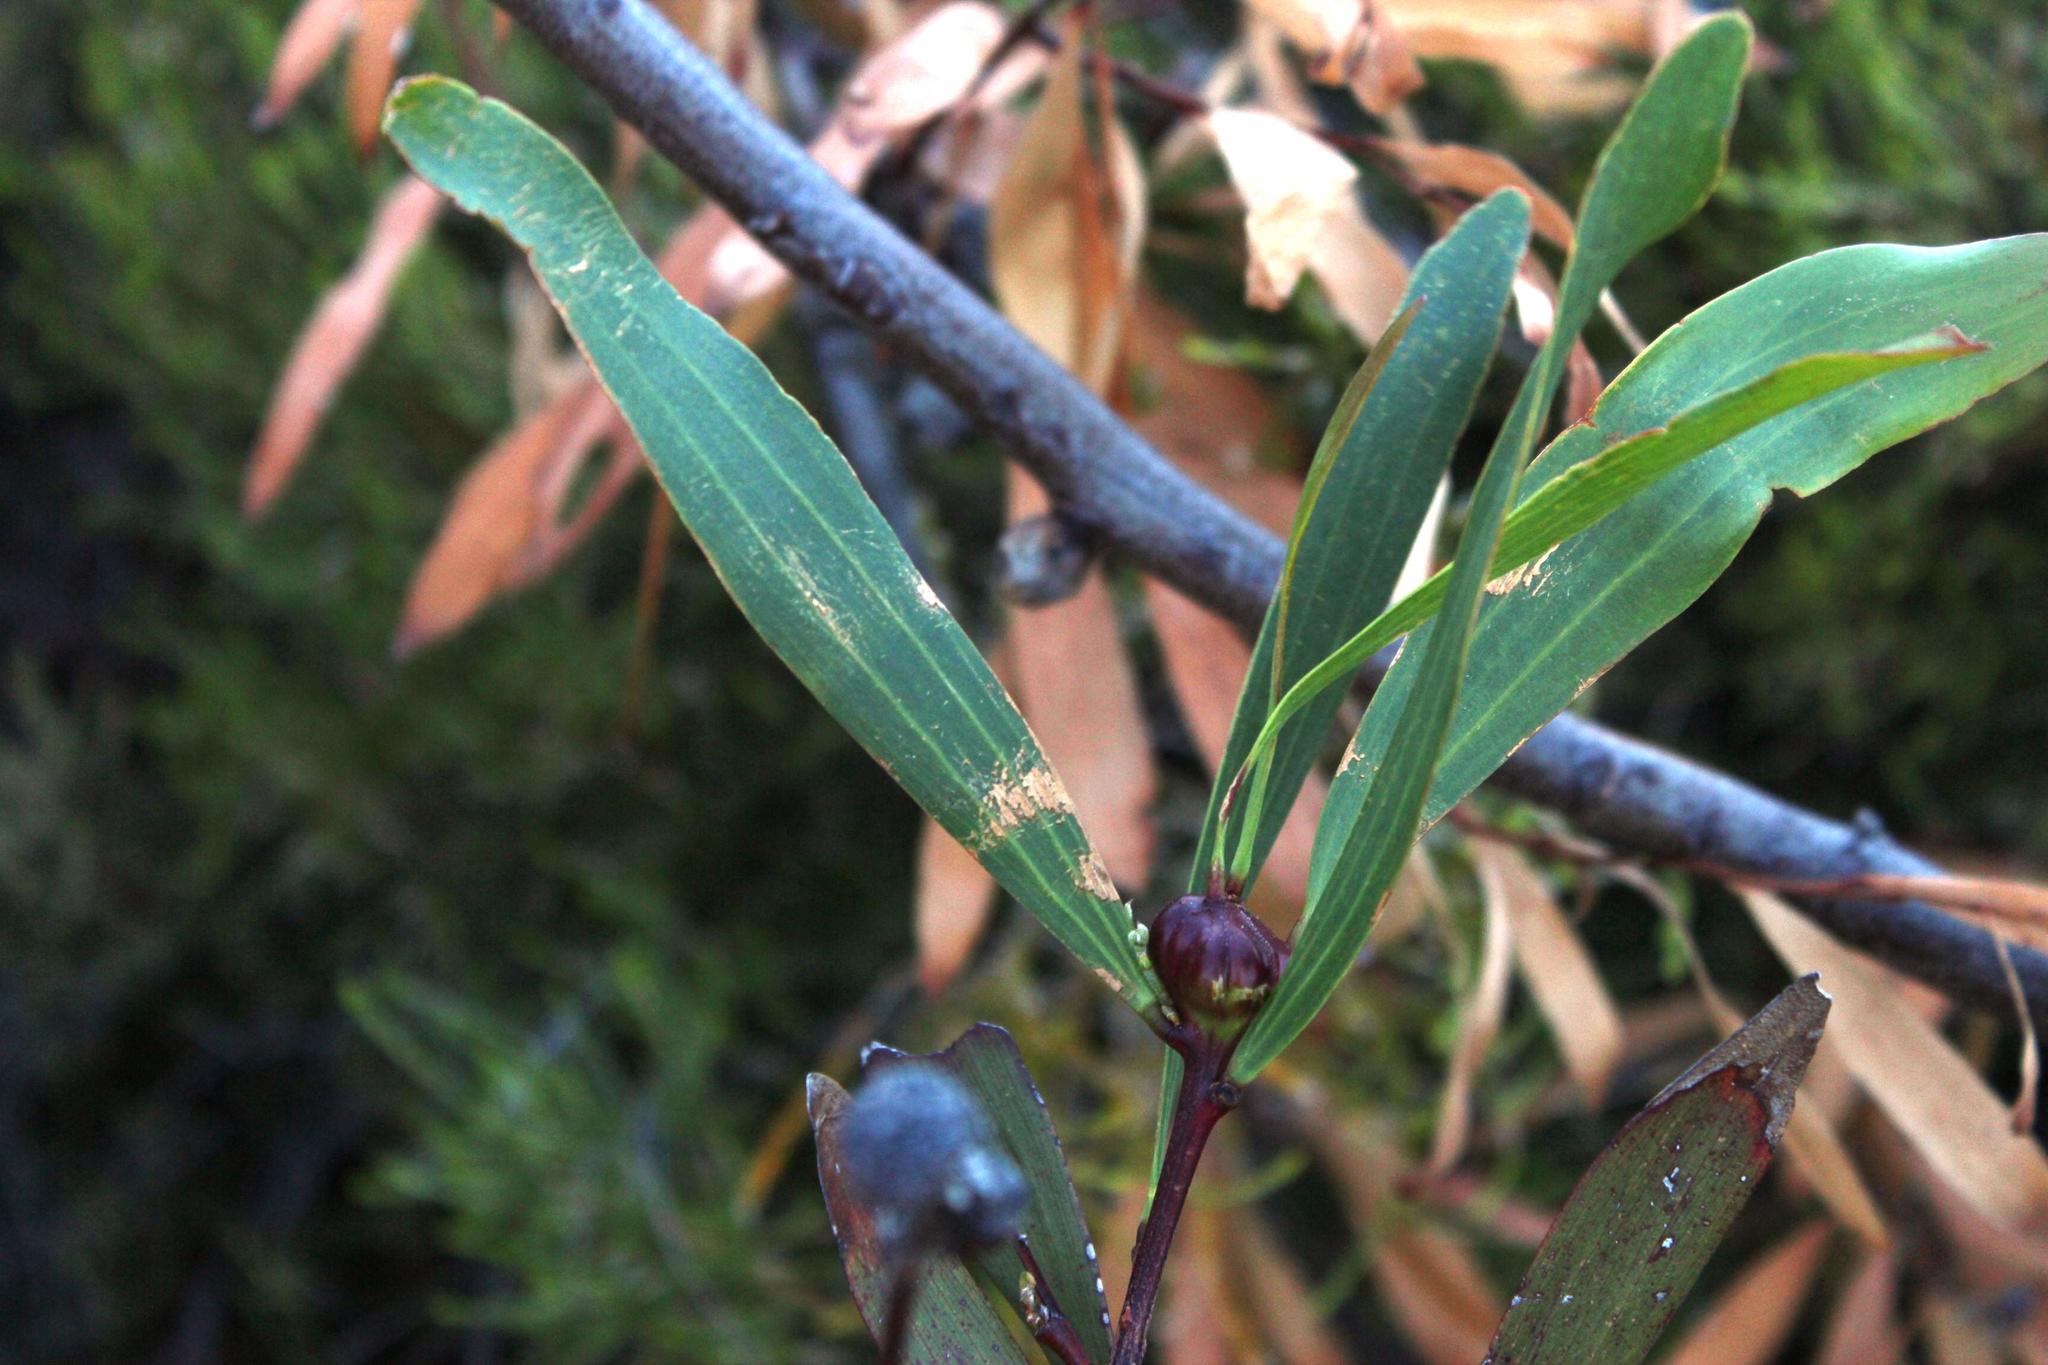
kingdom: Plantae
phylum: Tracheophyta
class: Magnoliopsida
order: Fabales
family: Fabaceae
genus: Acacia
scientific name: Acacia longifolia
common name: Sydney golden wattle
